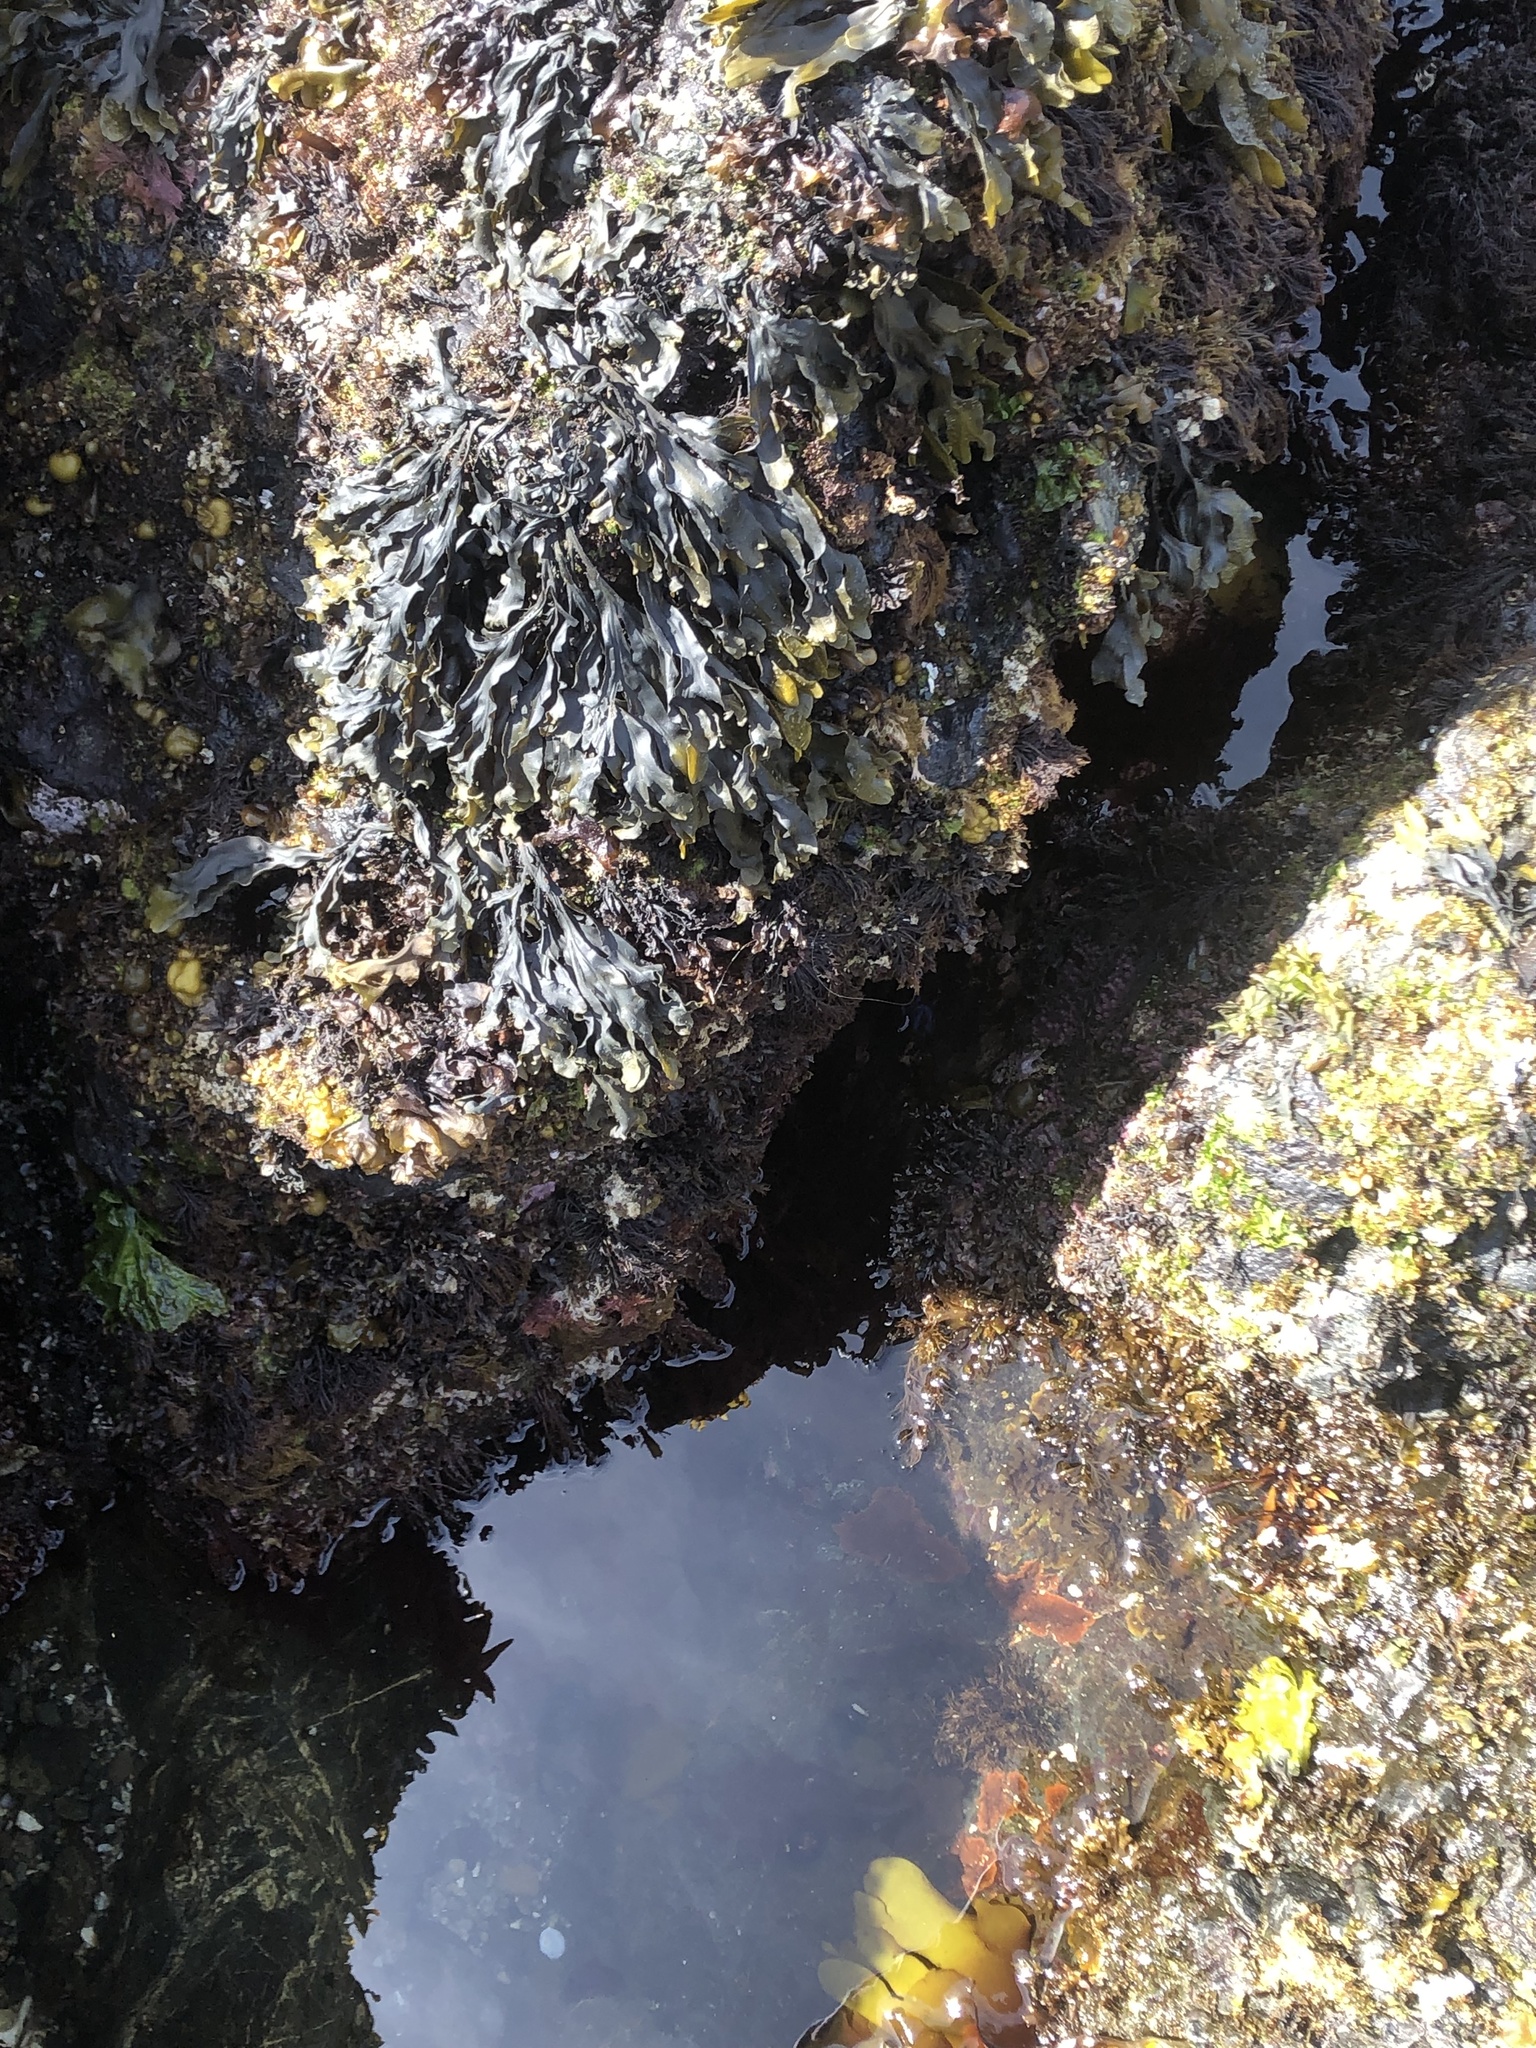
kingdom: Plantae
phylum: Rhodophyta
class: Florideophyceae
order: Ceramiales
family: Delesseriaceae
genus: Cumathamnion
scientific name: Cumathamnion decipiens
